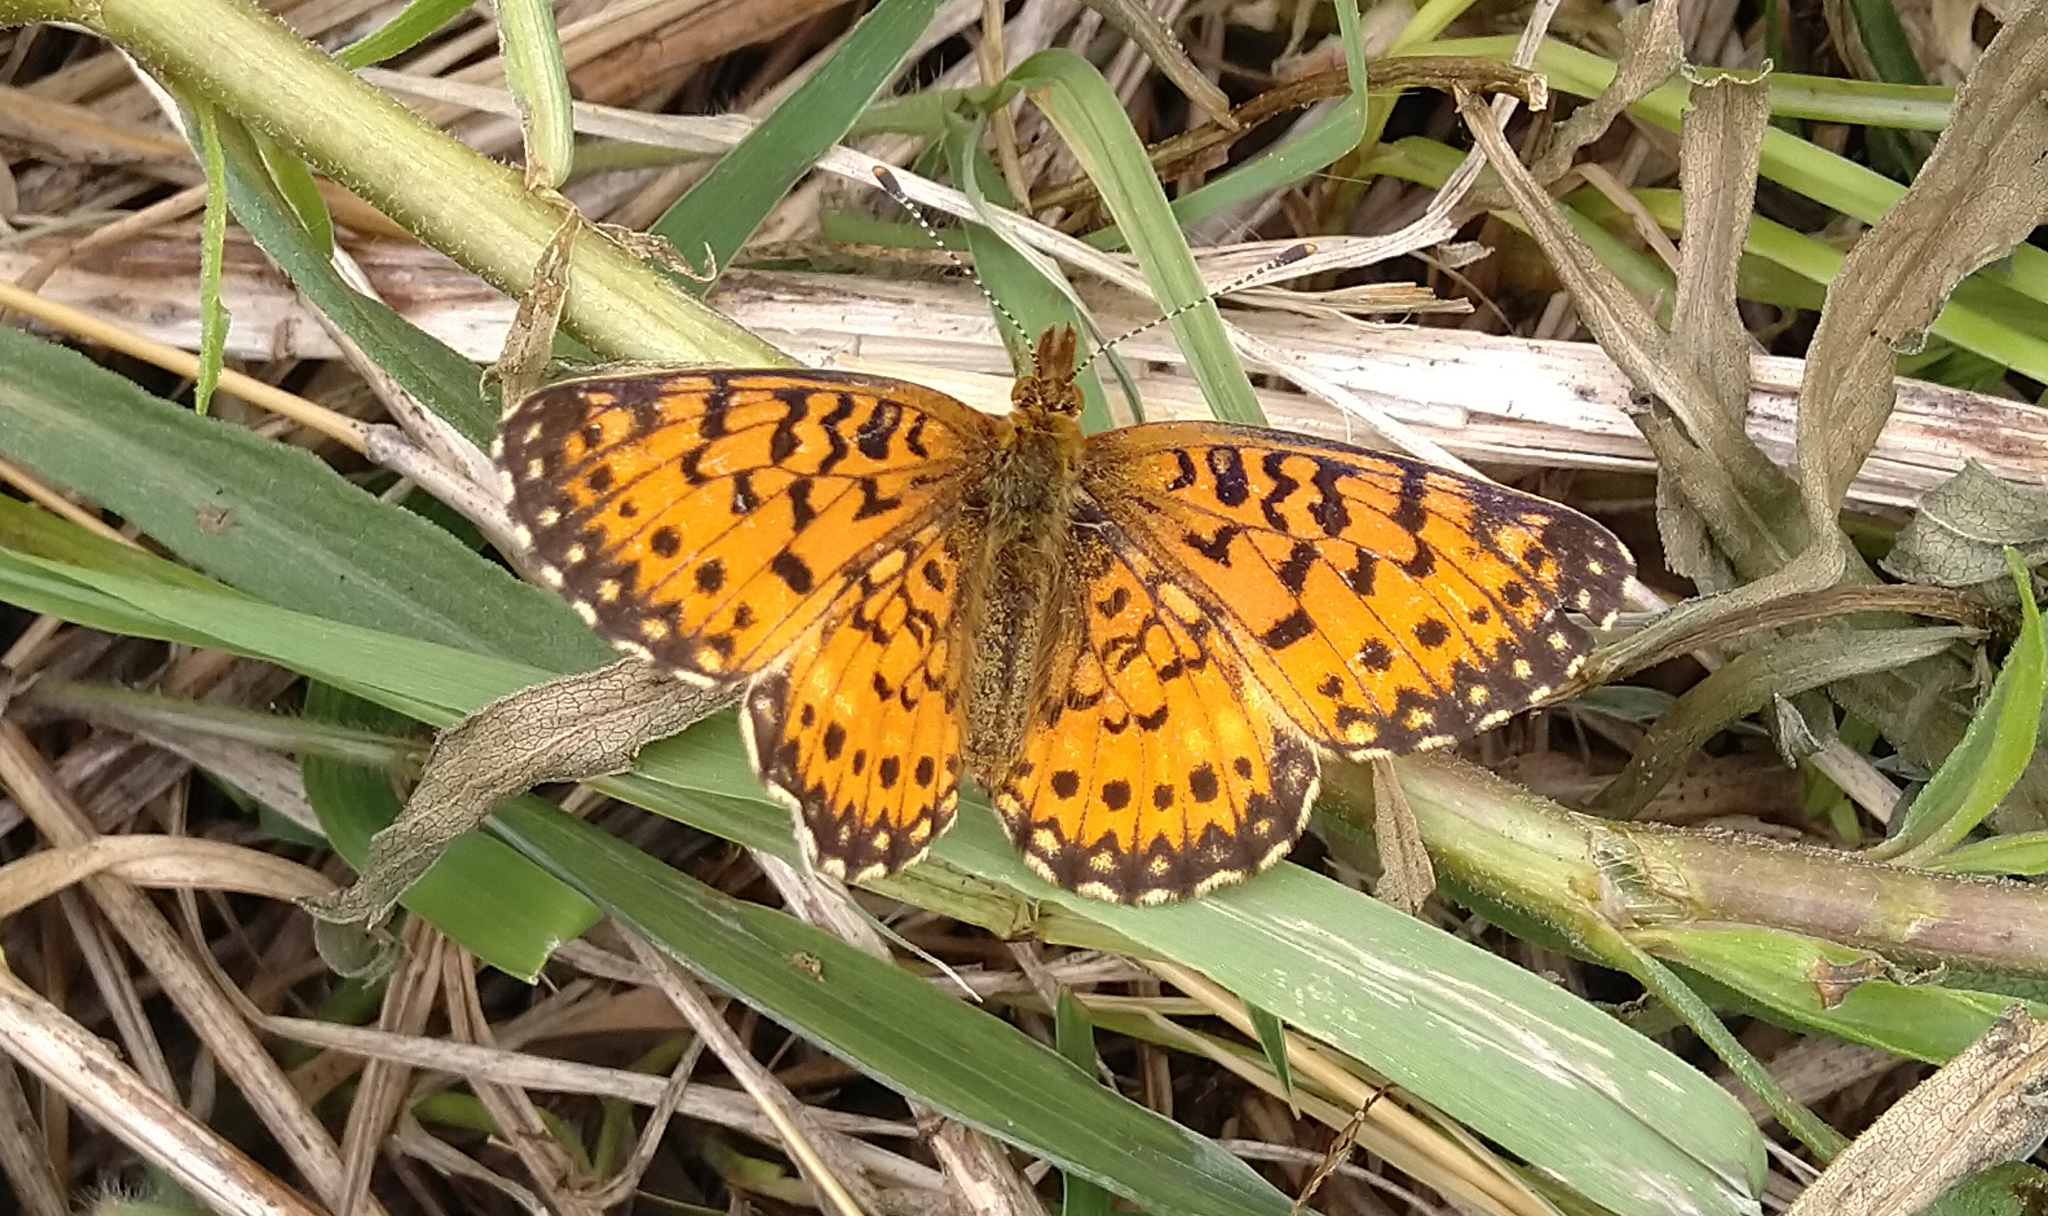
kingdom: Animalia
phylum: Arthropoda
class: Insecta
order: Lepidoptera
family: Nymphalidae
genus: Boloria
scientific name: Boloria
